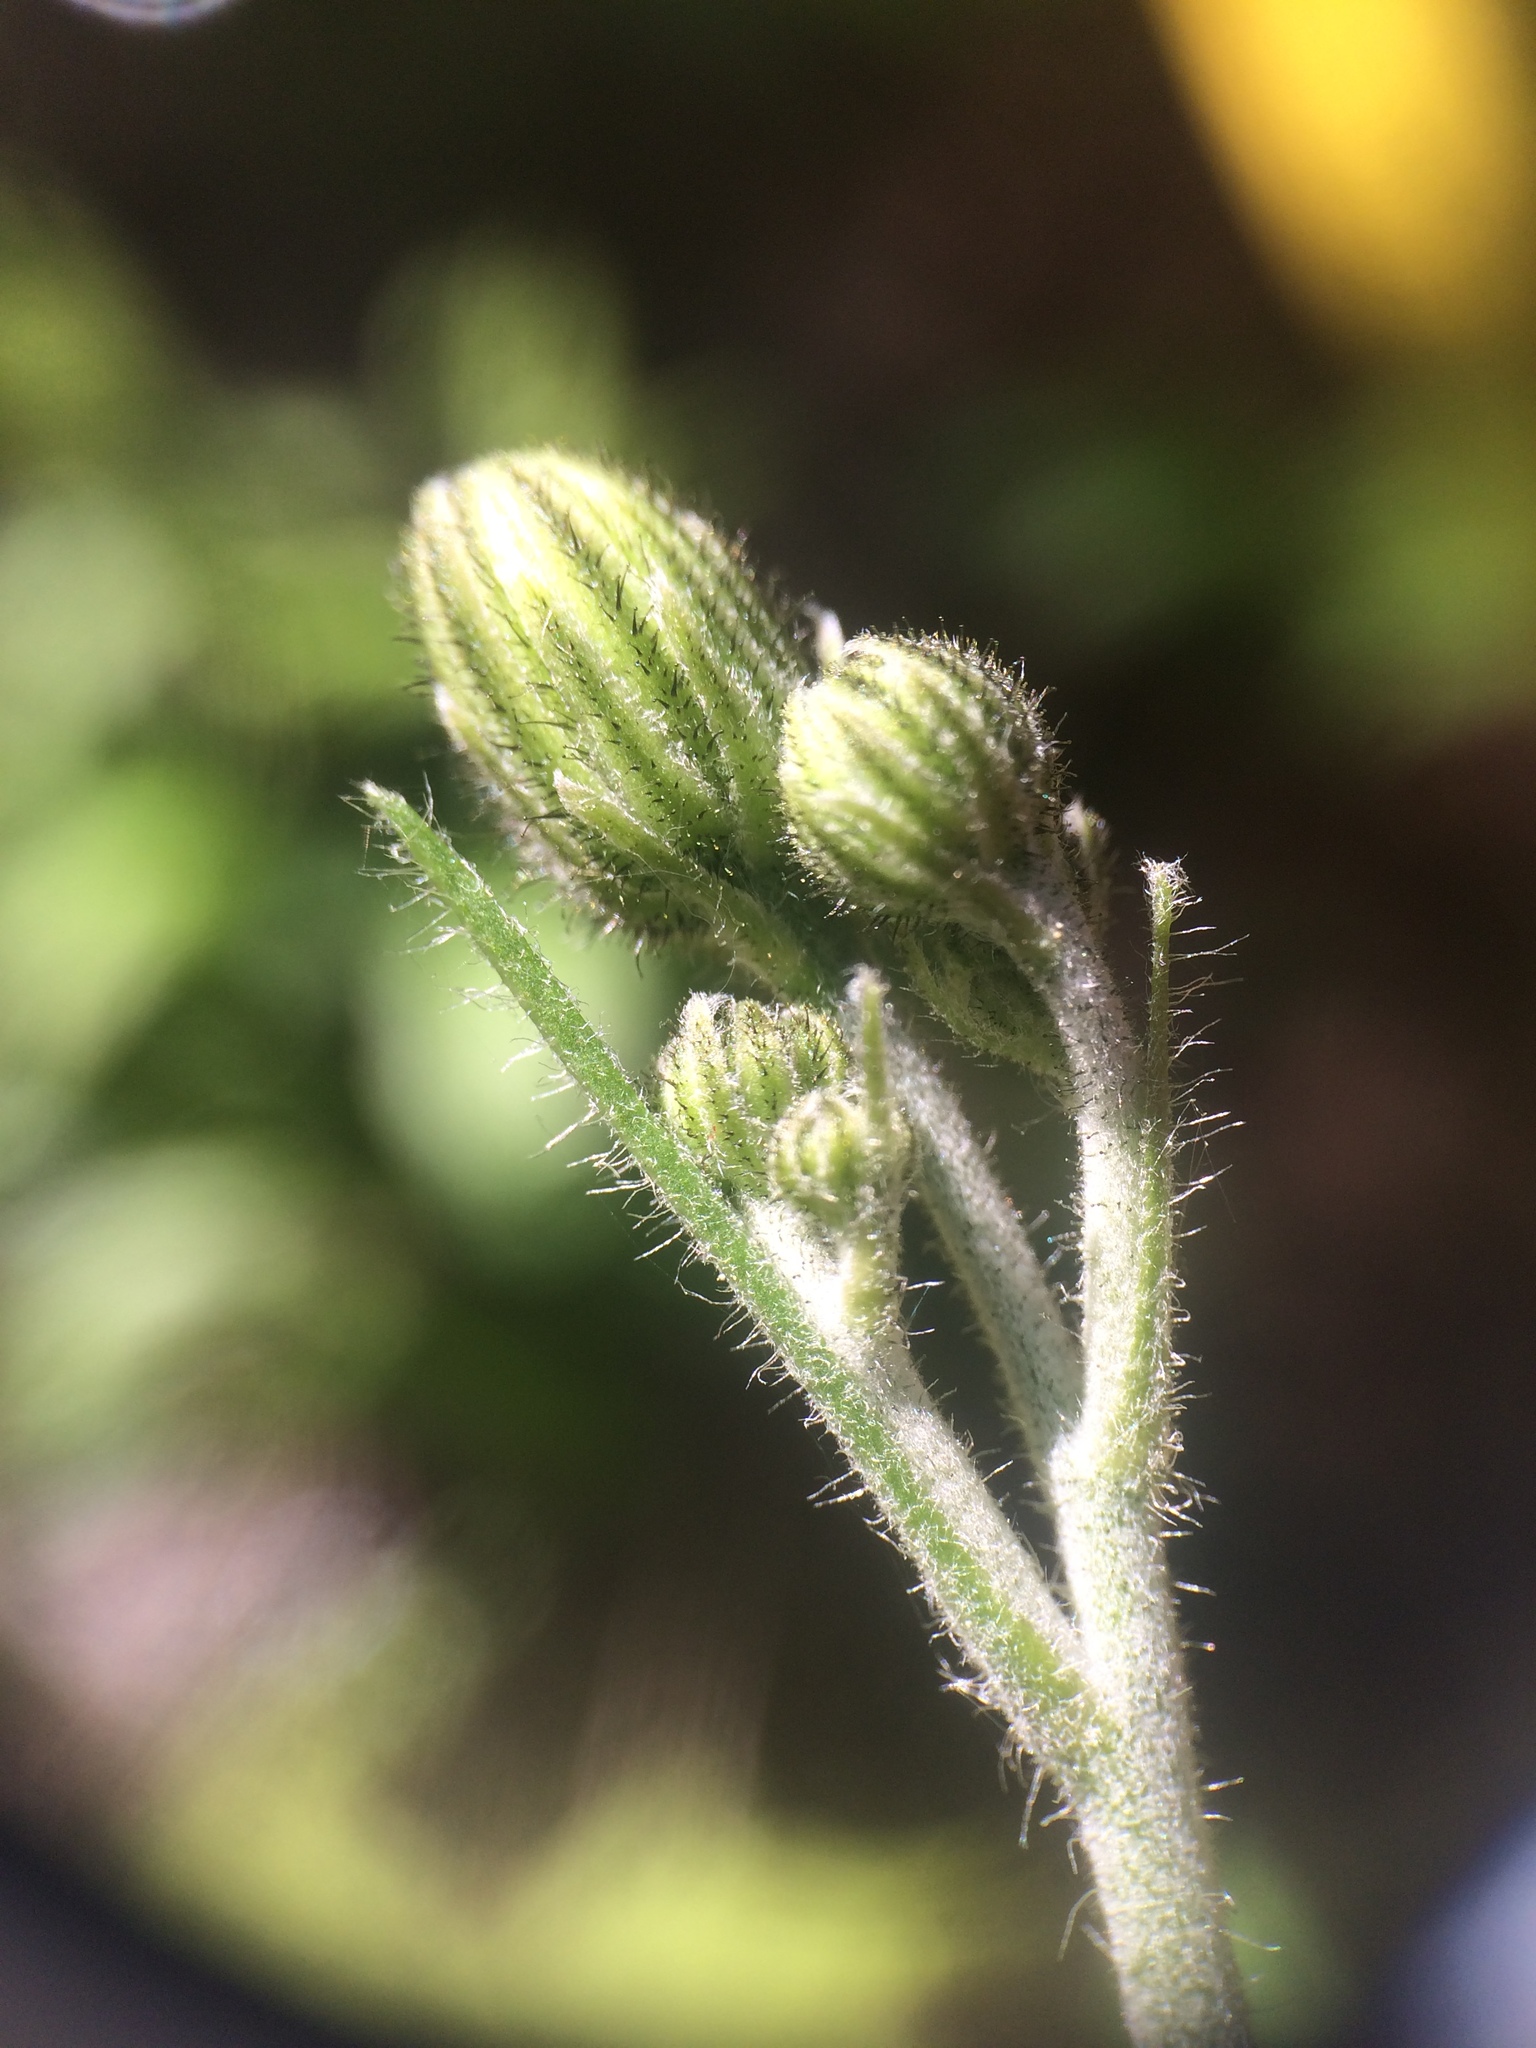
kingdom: Plantae
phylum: Tracheophyta
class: Magnoliopsida
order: Asterales
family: Asteraceae
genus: Hieracium
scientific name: Hieracium lachenalii
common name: Common hawkweed
